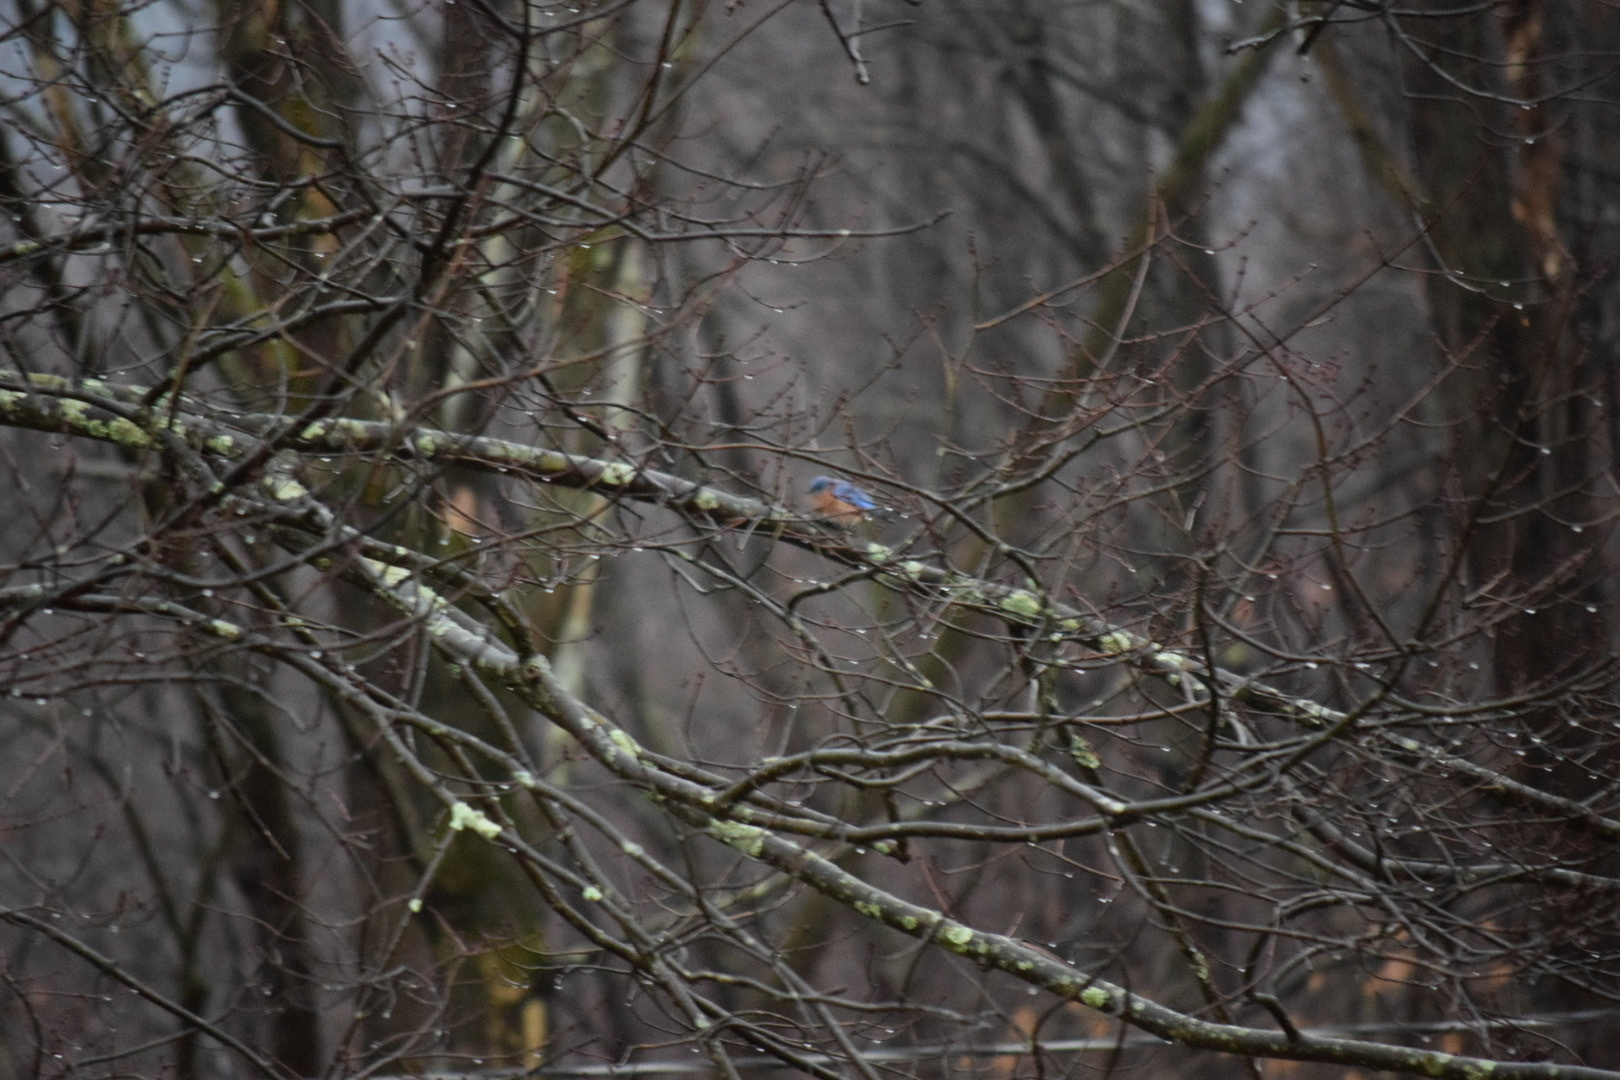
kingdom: Animalia
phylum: Chordata
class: Aves
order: Passeriformes
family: Turdidae
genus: Sialia
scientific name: Sialia sialis
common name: Eastern bluebird
